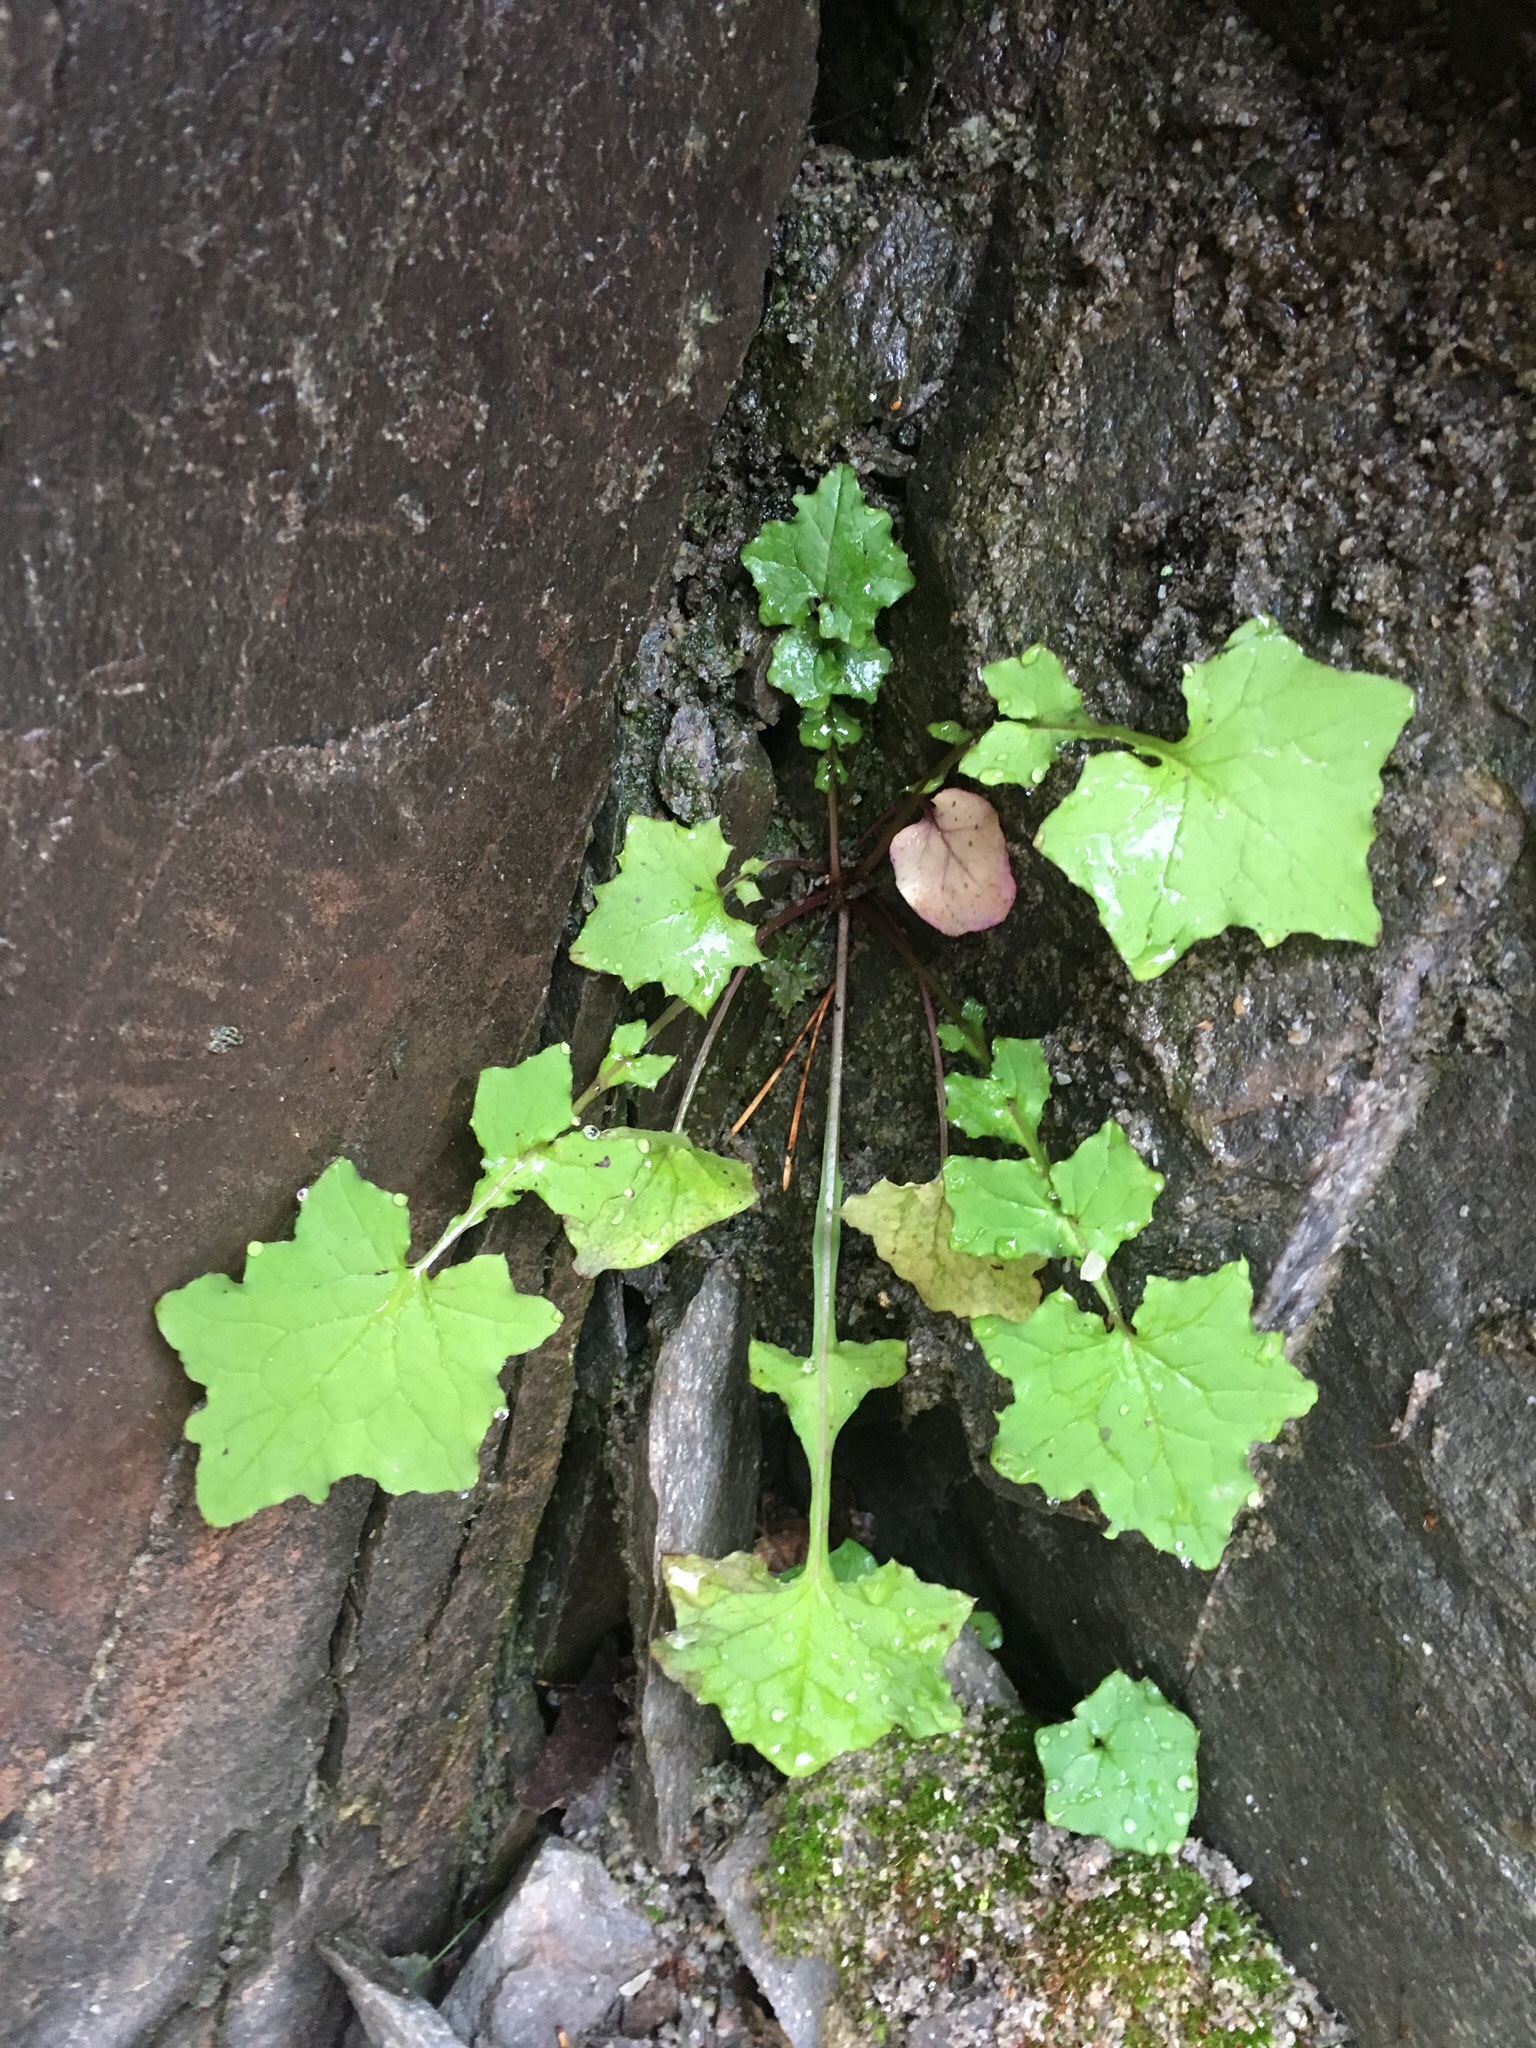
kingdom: Plantae
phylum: Tracheophyta
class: Magnoliopsida
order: Asterales
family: Asteraceae
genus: Mycelis
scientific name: Mycelis muralis
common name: Wall lettuce
